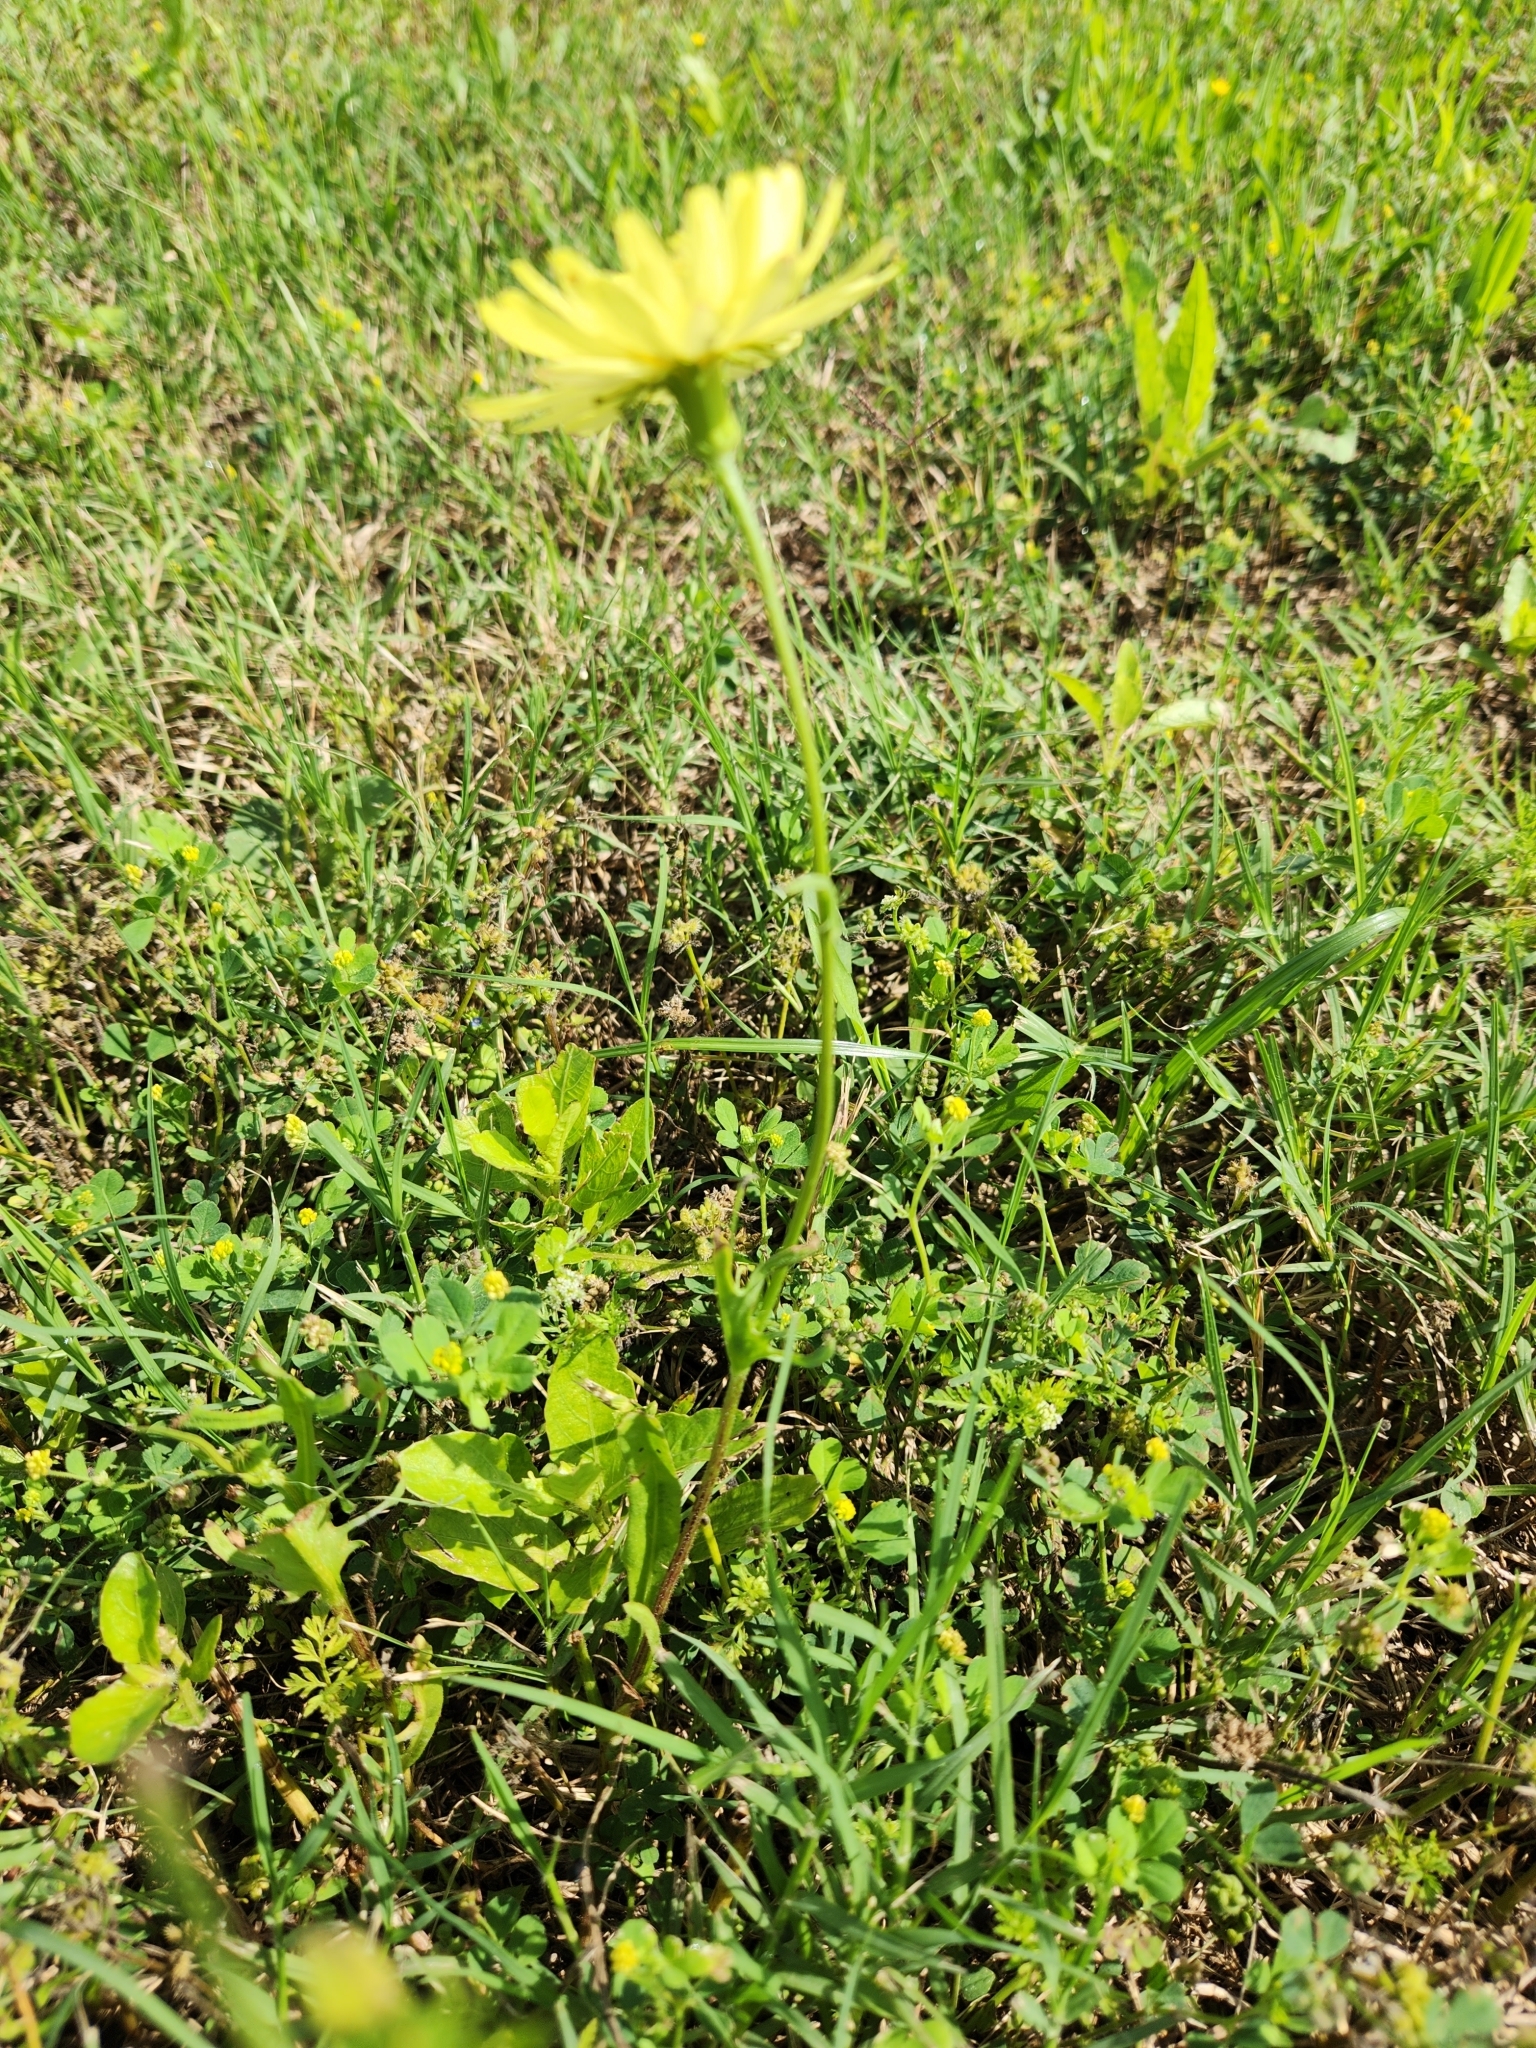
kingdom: Plantae
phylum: Tracheophyta
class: Magnoliopsida
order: Asterales
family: Asteraceae
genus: Pyrrhopappus
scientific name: Pyrrhopappus pauciflorus
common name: Texas false dandelion
